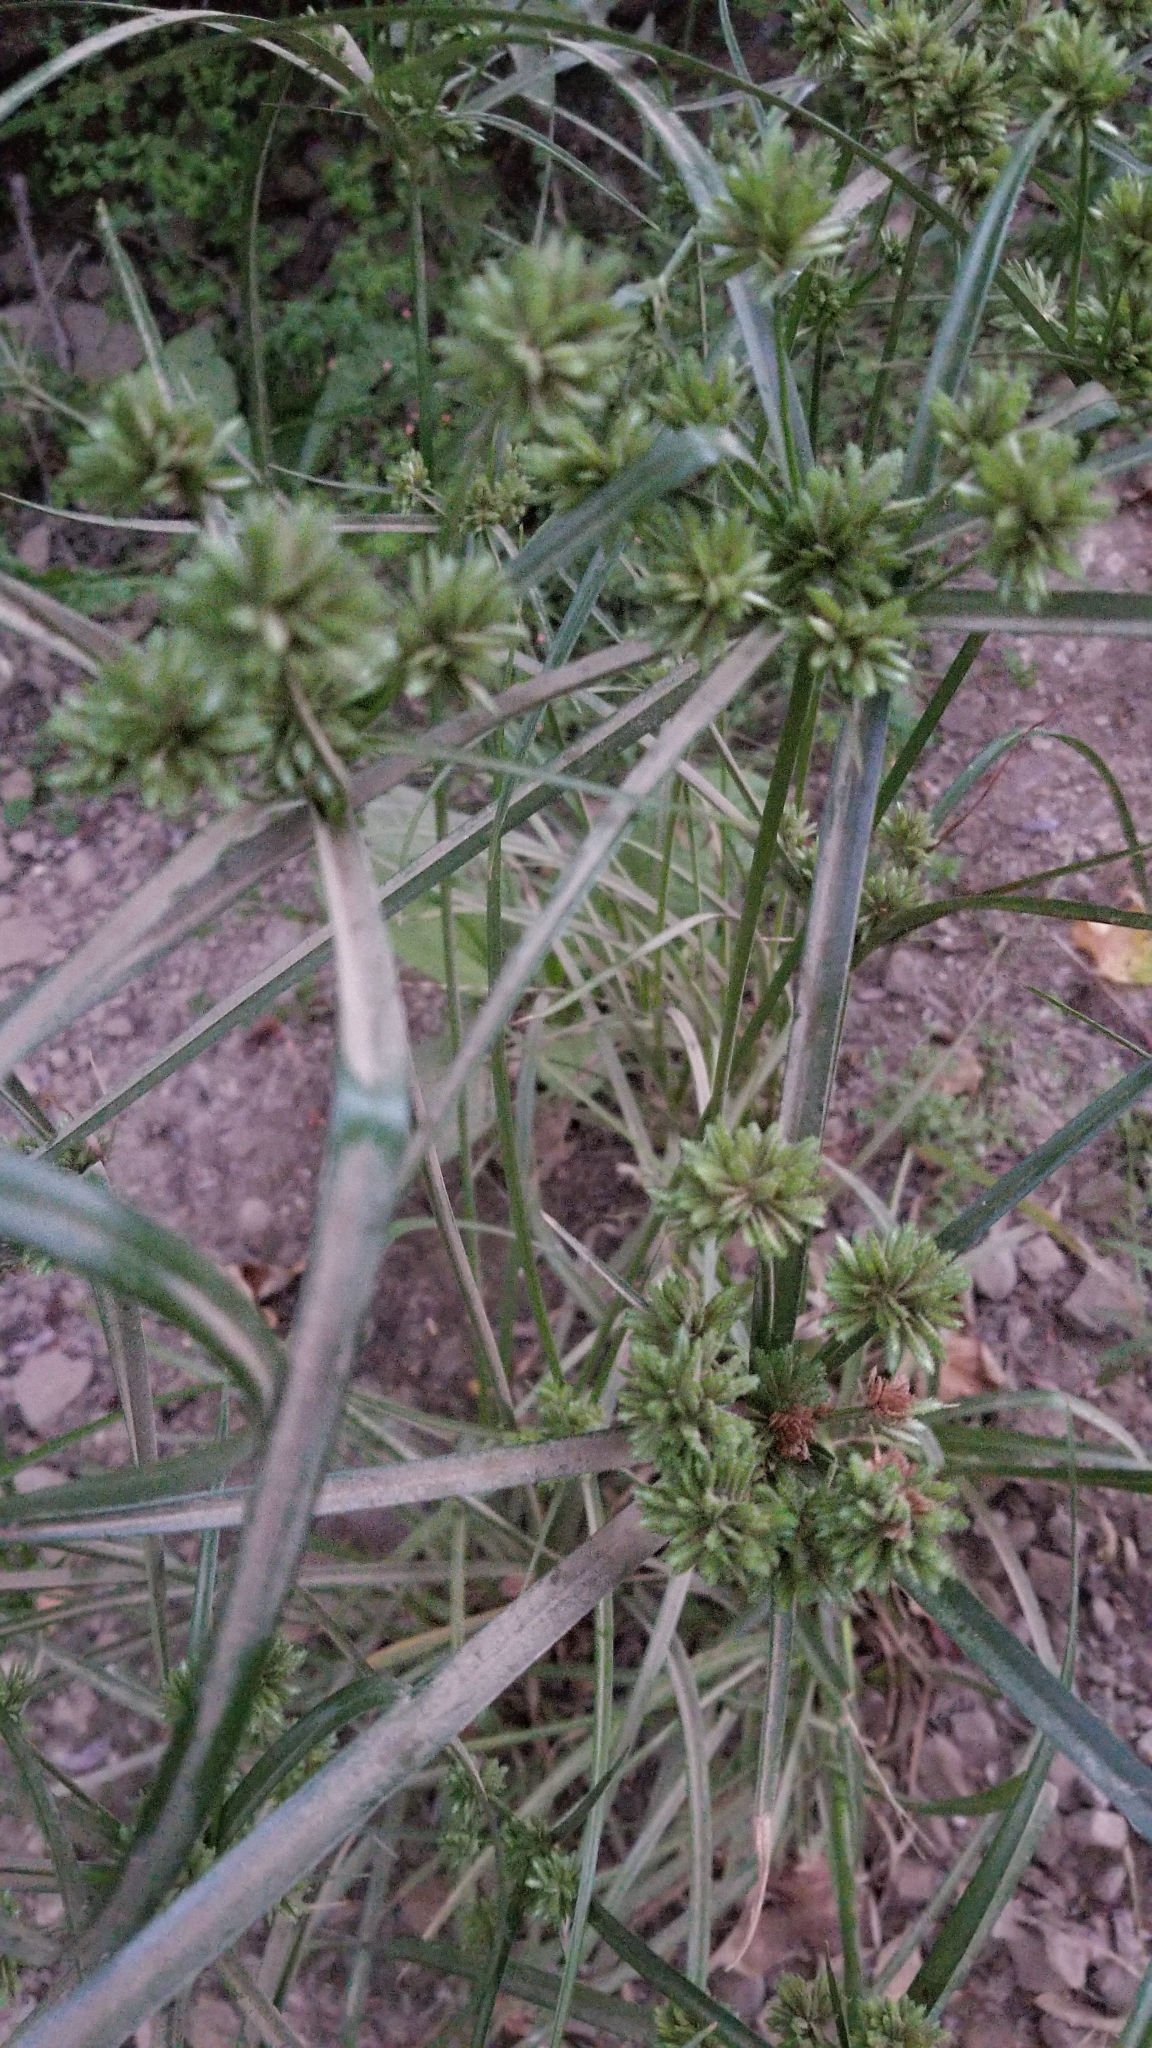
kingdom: Plantae
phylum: Tracheophyta
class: Liliopsida
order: Poales
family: Cyperaceae
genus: Cyperus
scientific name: Cyperus eragrostis
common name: Tall flatsedge
